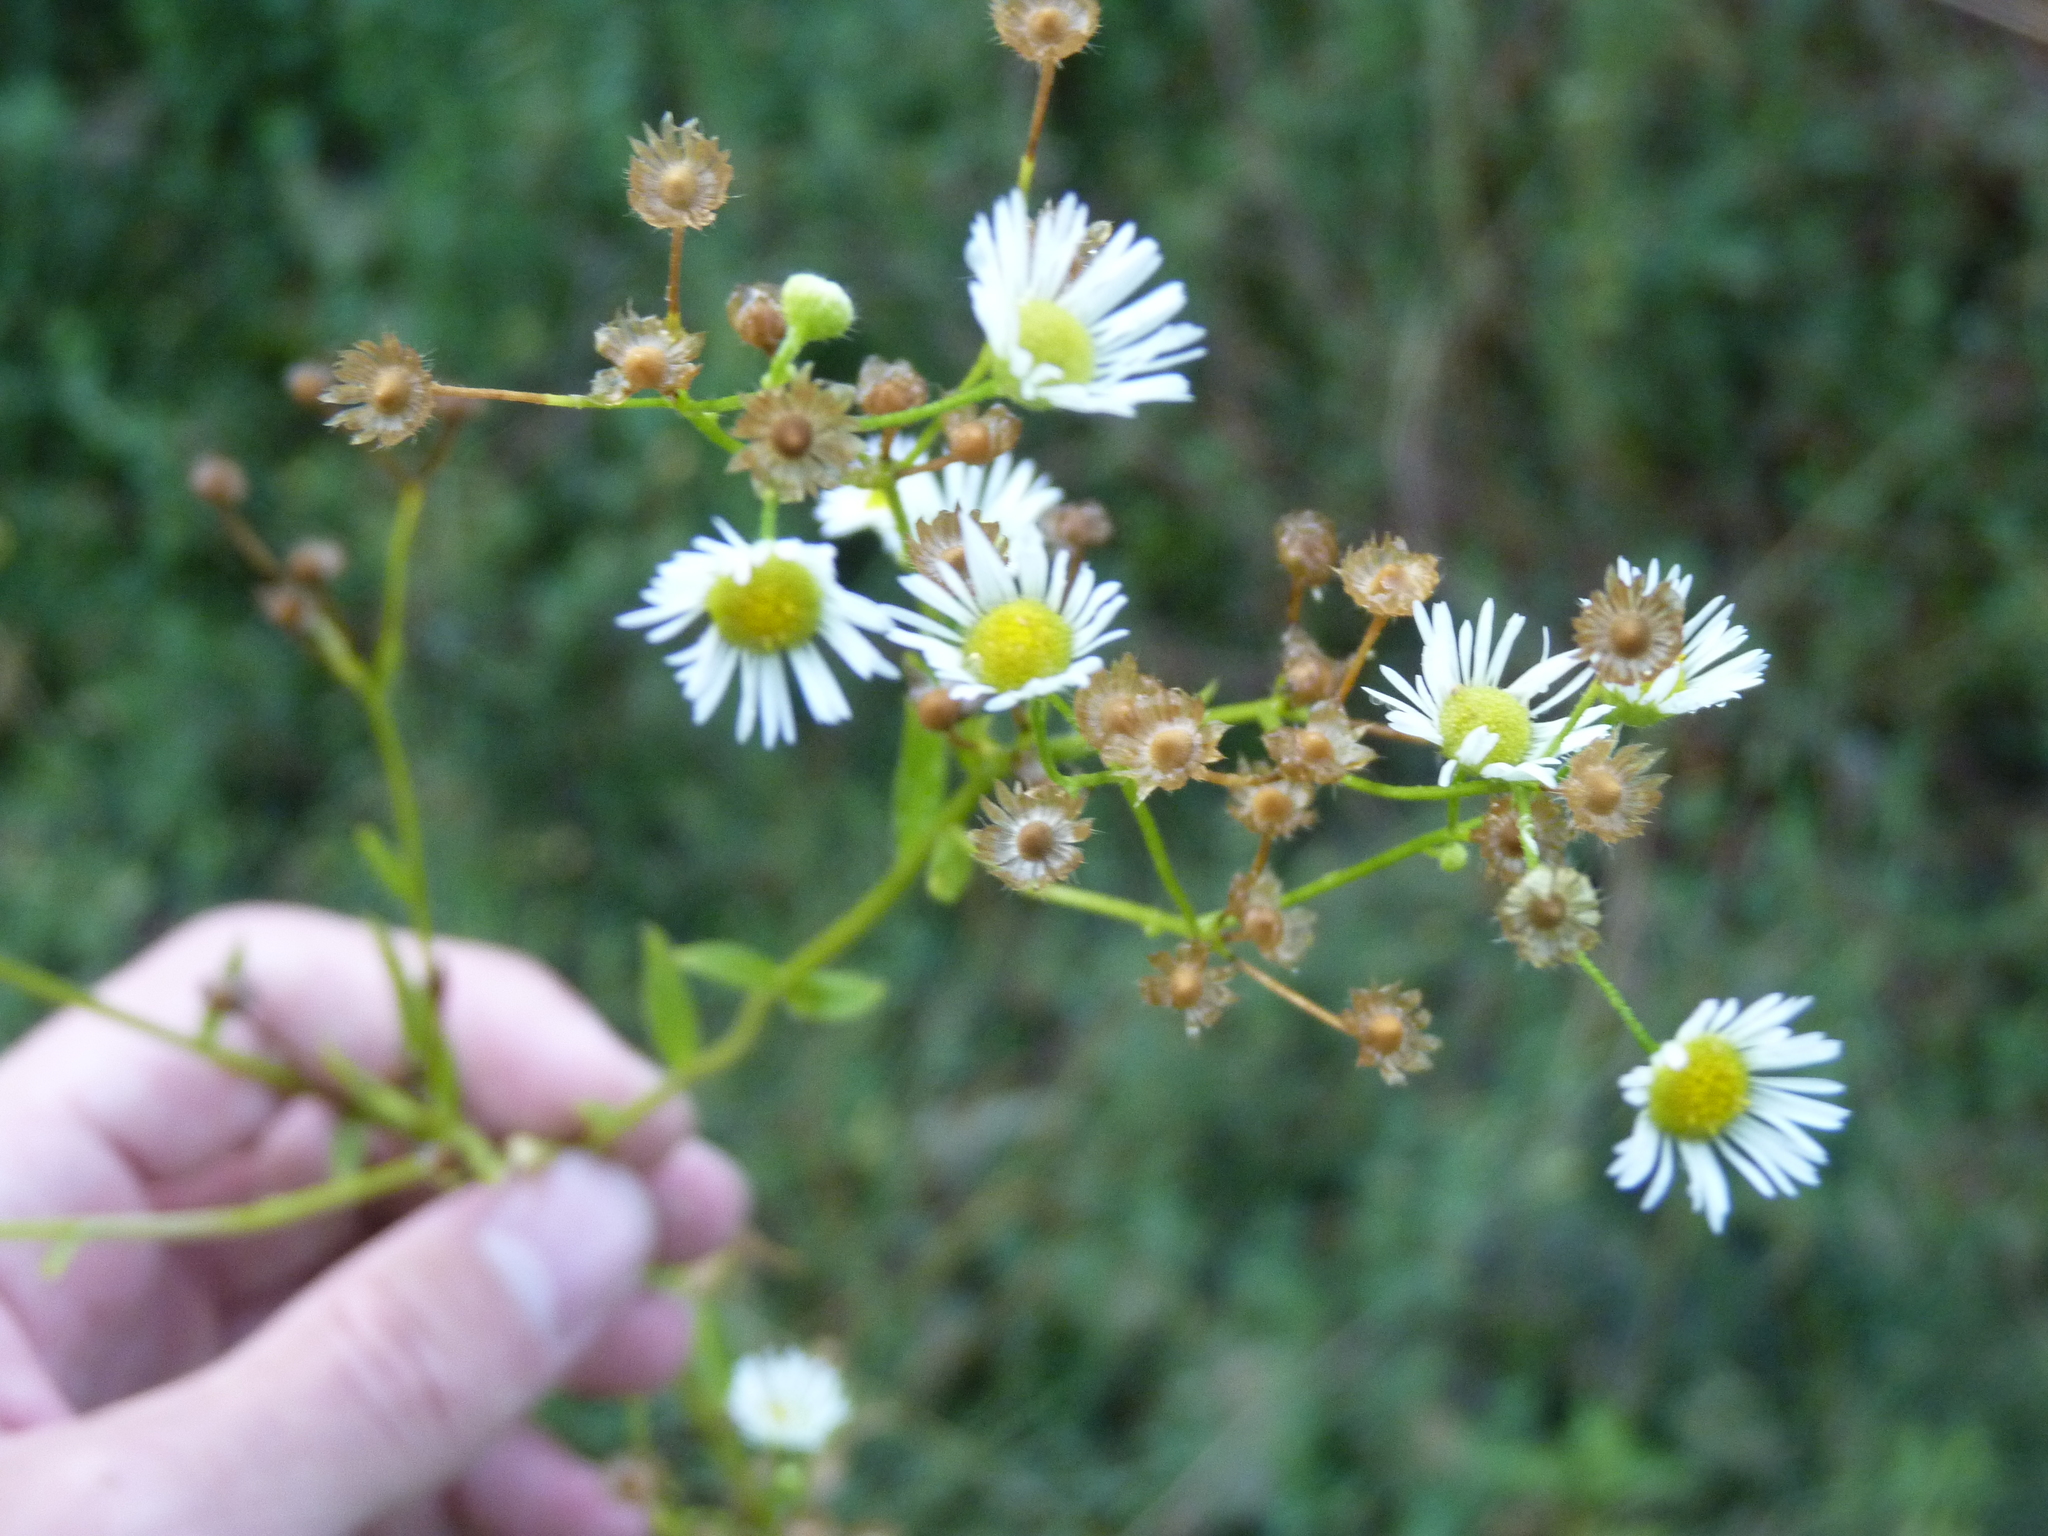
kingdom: Plantae
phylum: Tracheophyta
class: Magnoliopsida
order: Asterales
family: Asteraceae
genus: Erigeron
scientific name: Erigeron annuus
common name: Tall fleabane
